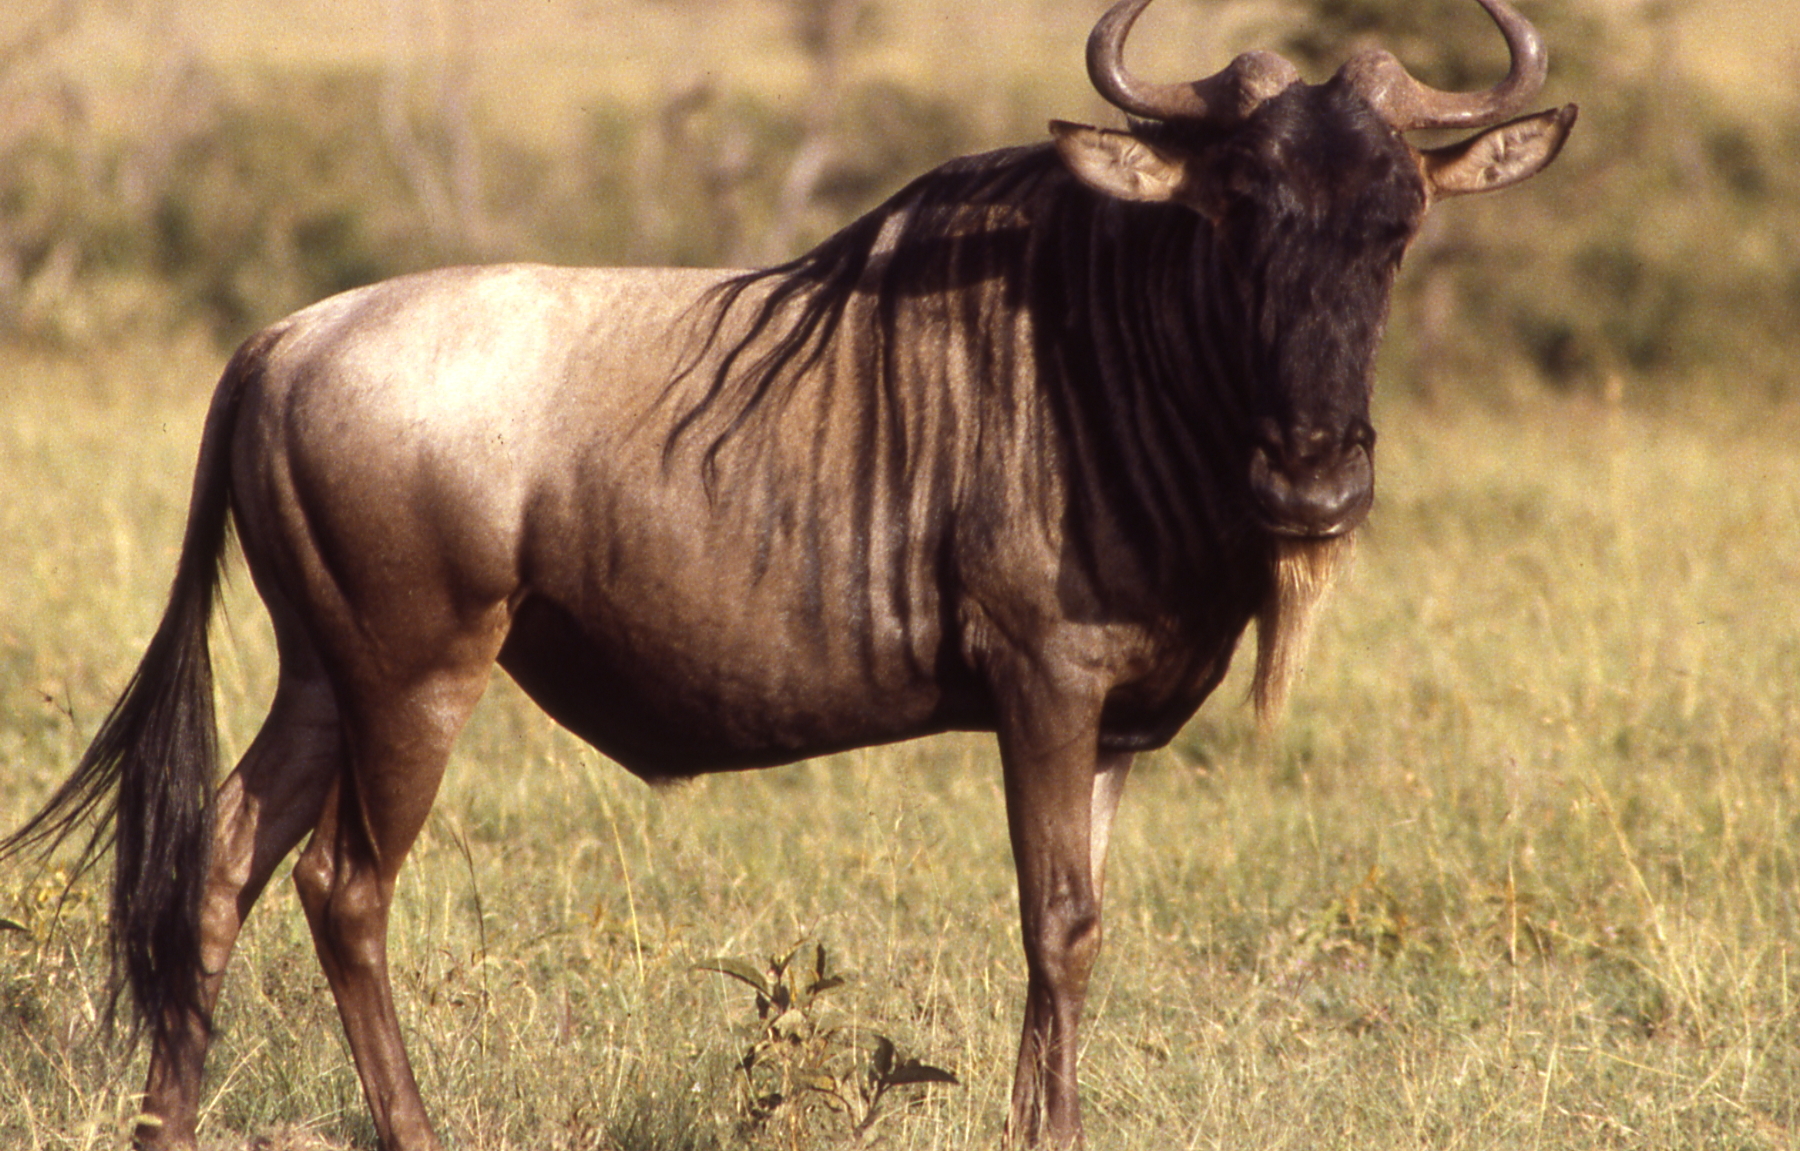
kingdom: Animalia
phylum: Chordata
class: Mammalia
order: Artiodactyla
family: Bovidae
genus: Connochaetes
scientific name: Connochaetes taurinus
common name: Blue wildebeest
